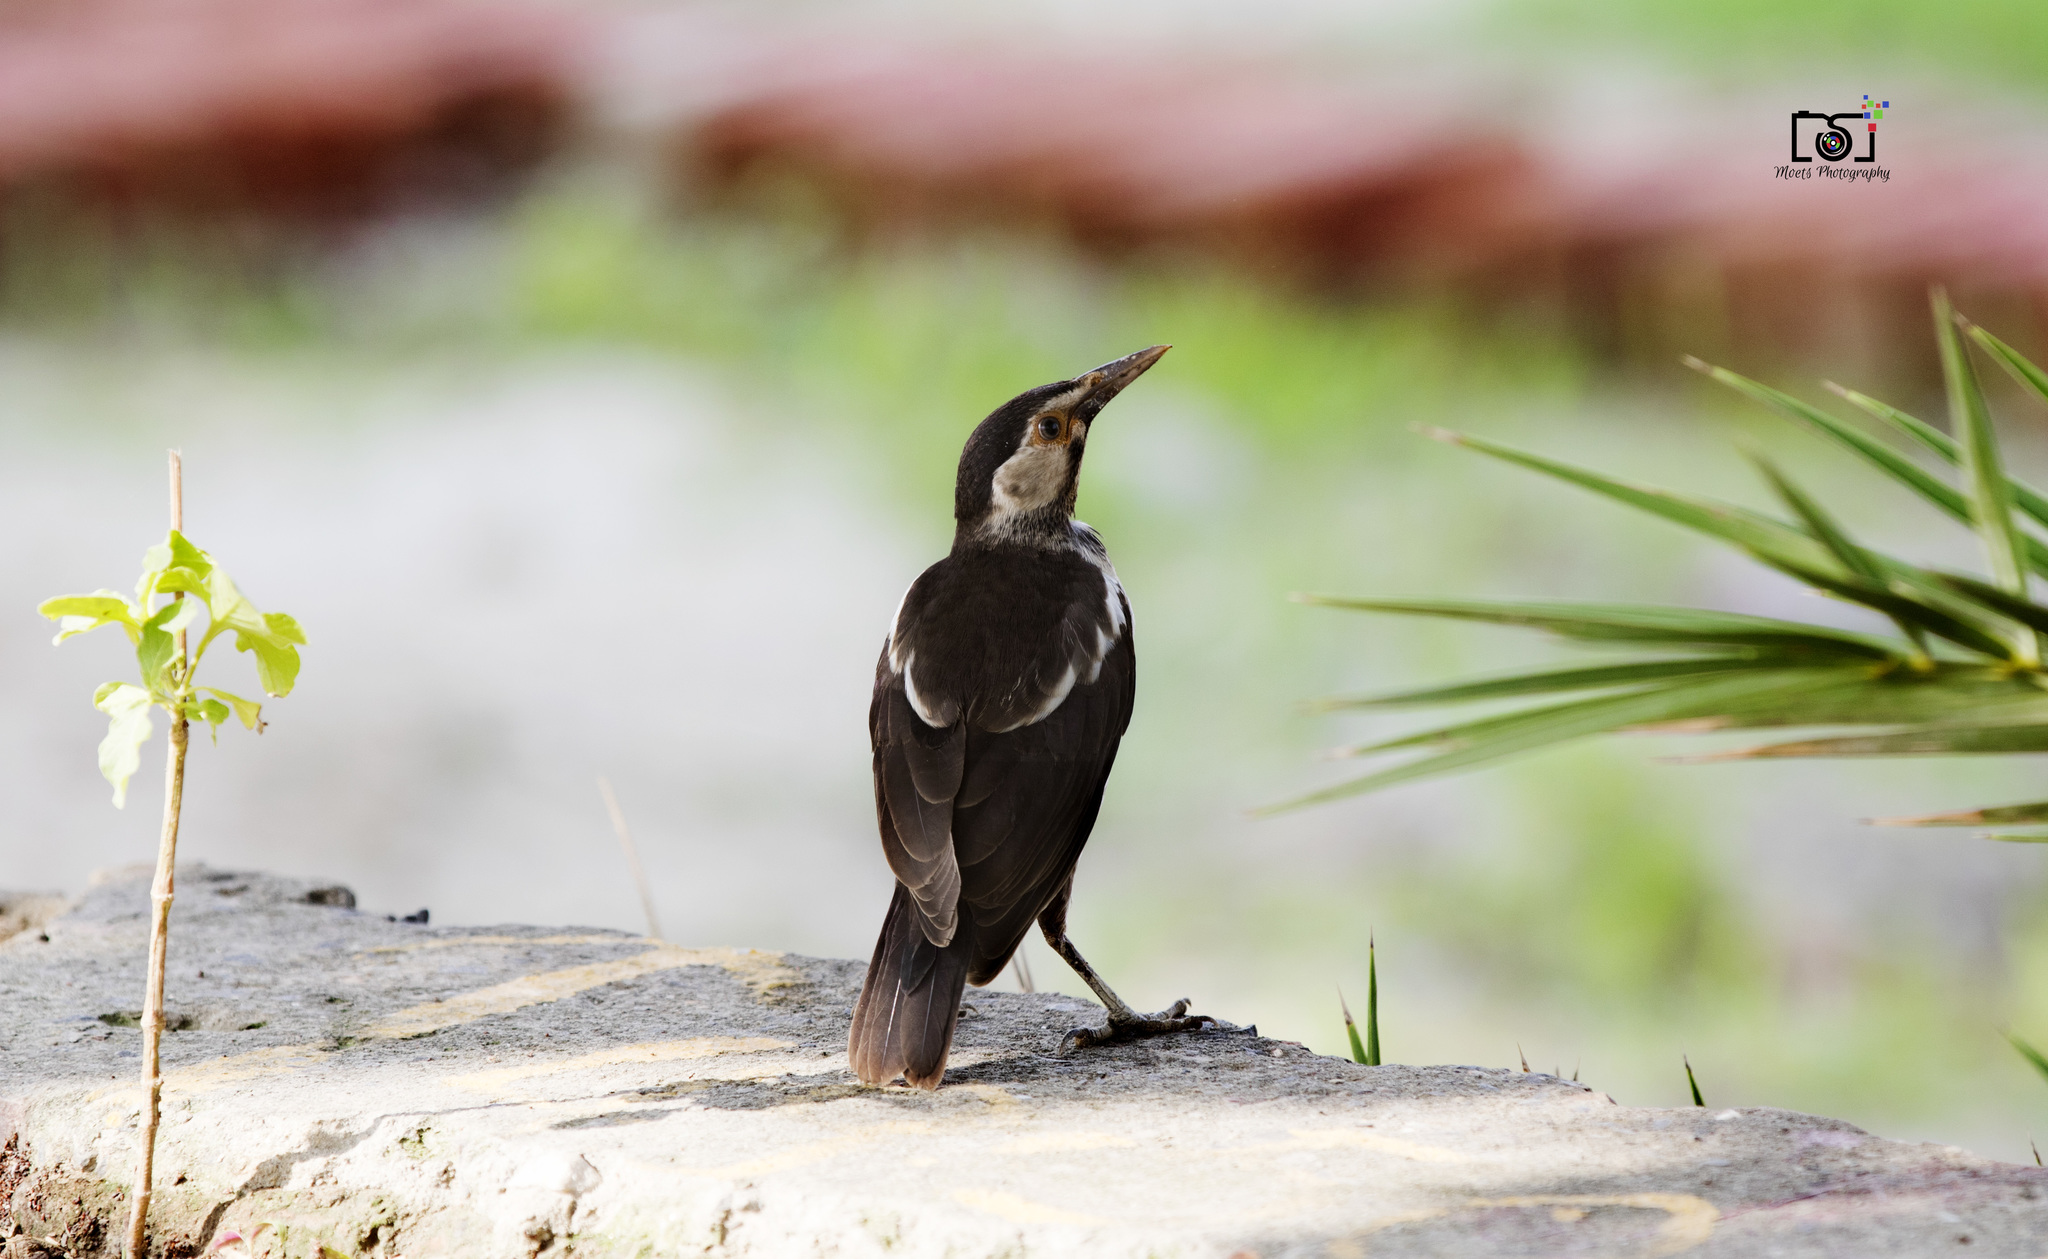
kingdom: Animalia
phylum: Chordata
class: Aves
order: Passeriformes
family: Sturnidae
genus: Gracupica
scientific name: Gracupica contra
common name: Pied myna
